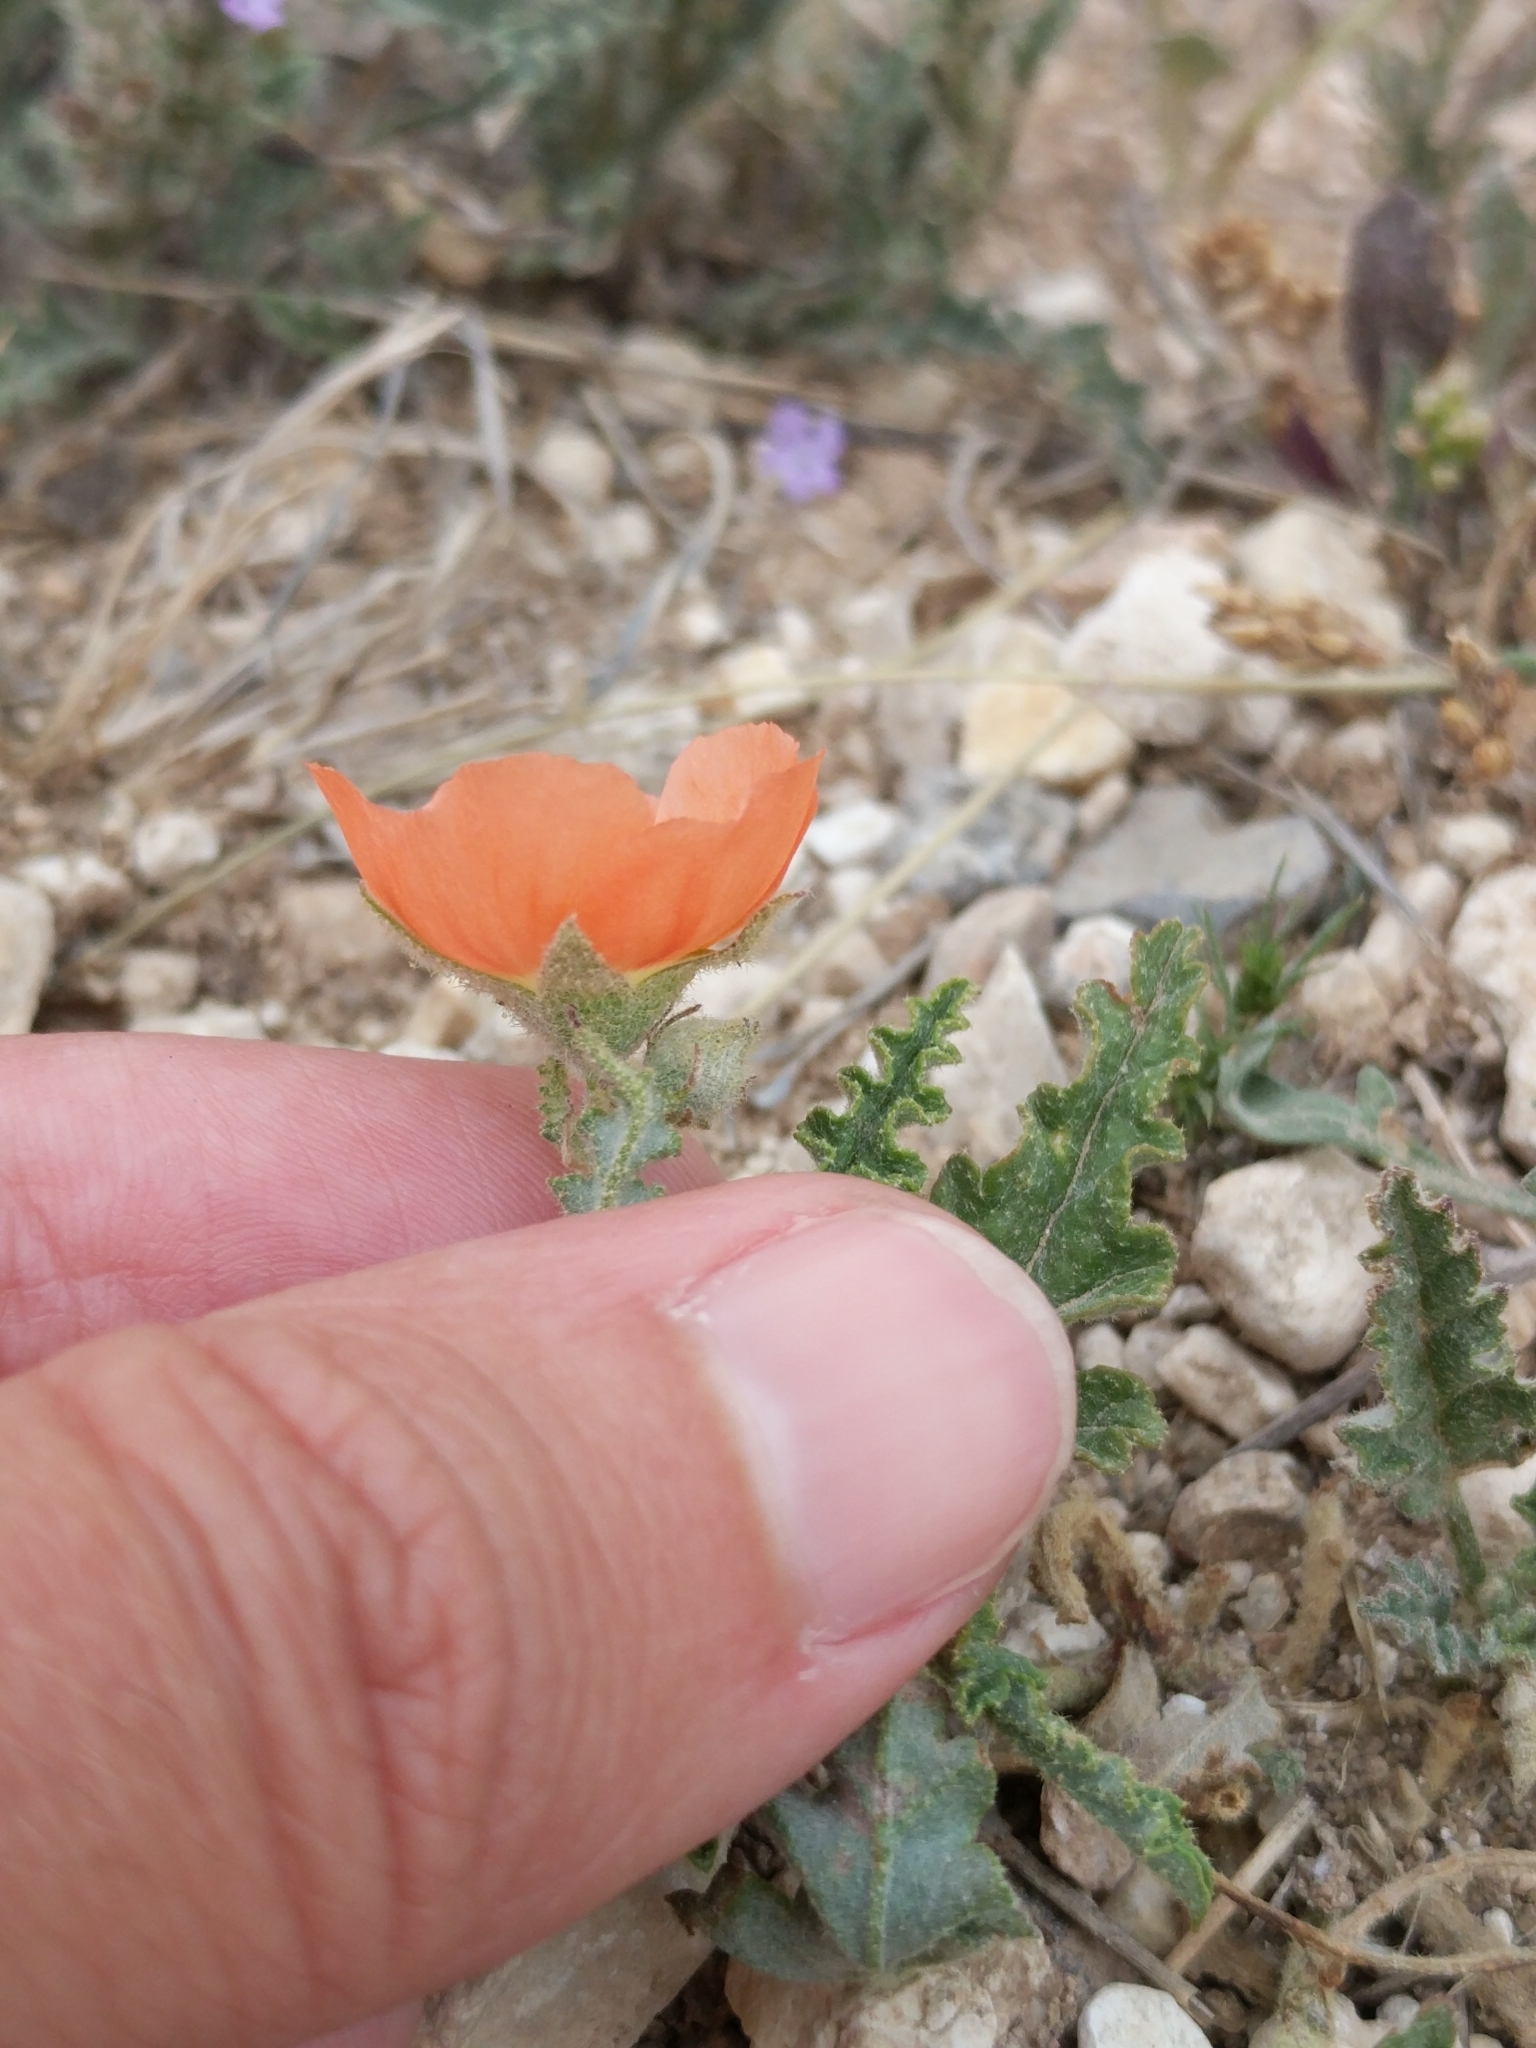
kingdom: Plantae
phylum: Tracheophyta
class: Magnoliopsida
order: Malvales
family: Malvaceae
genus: Sphaeralcea
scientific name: Sphaeralcea hastulata
